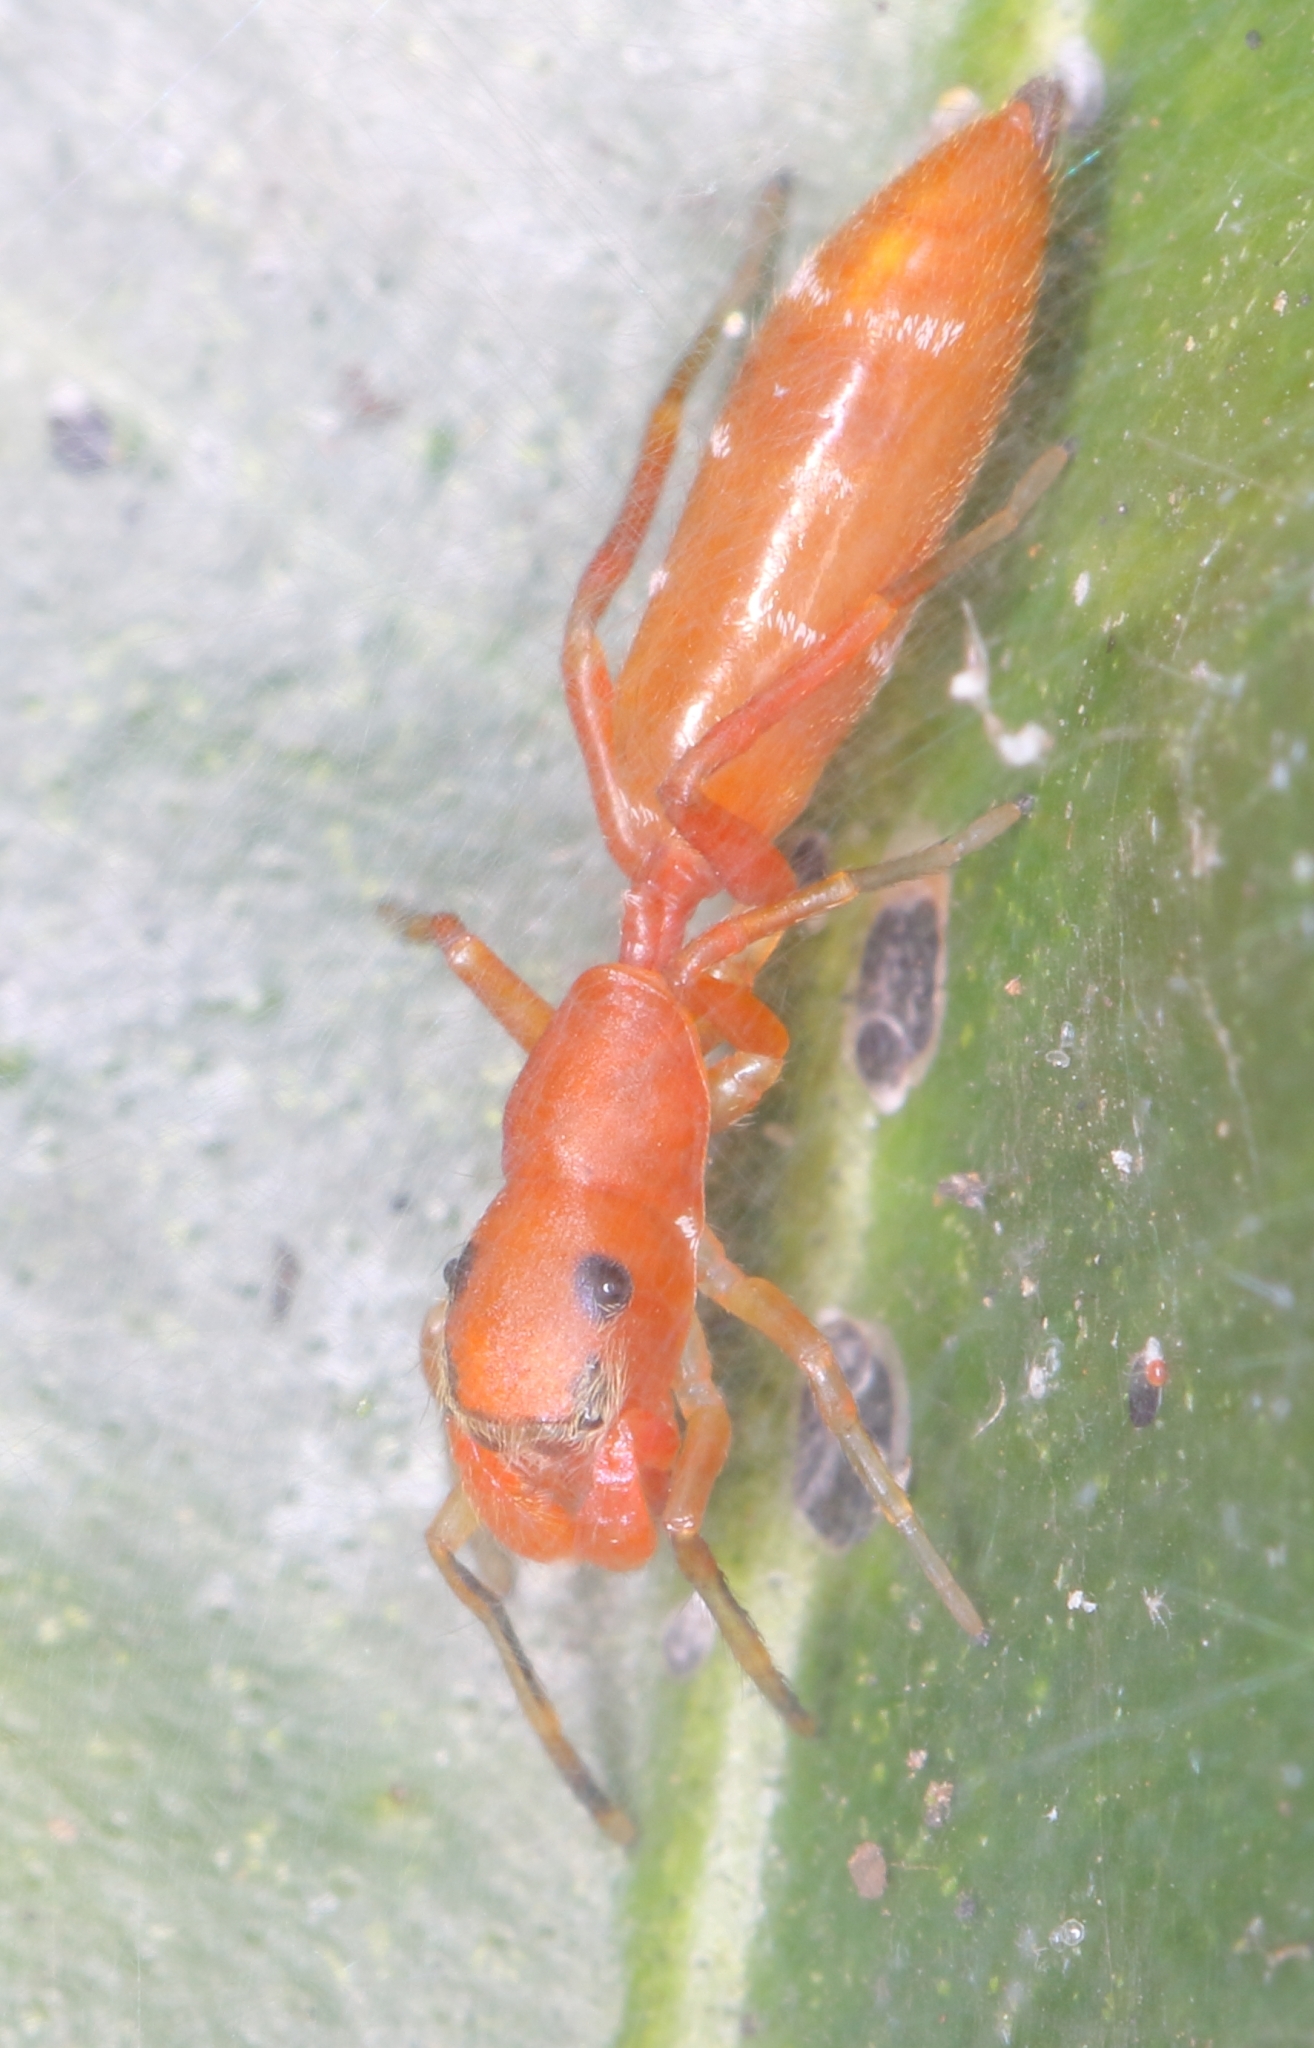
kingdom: Animalia
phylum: Arthropoda
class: Arachnida
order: Araneae
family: Salticidae
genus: Myrmarachne
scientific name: Myrmarachne ichneumon
